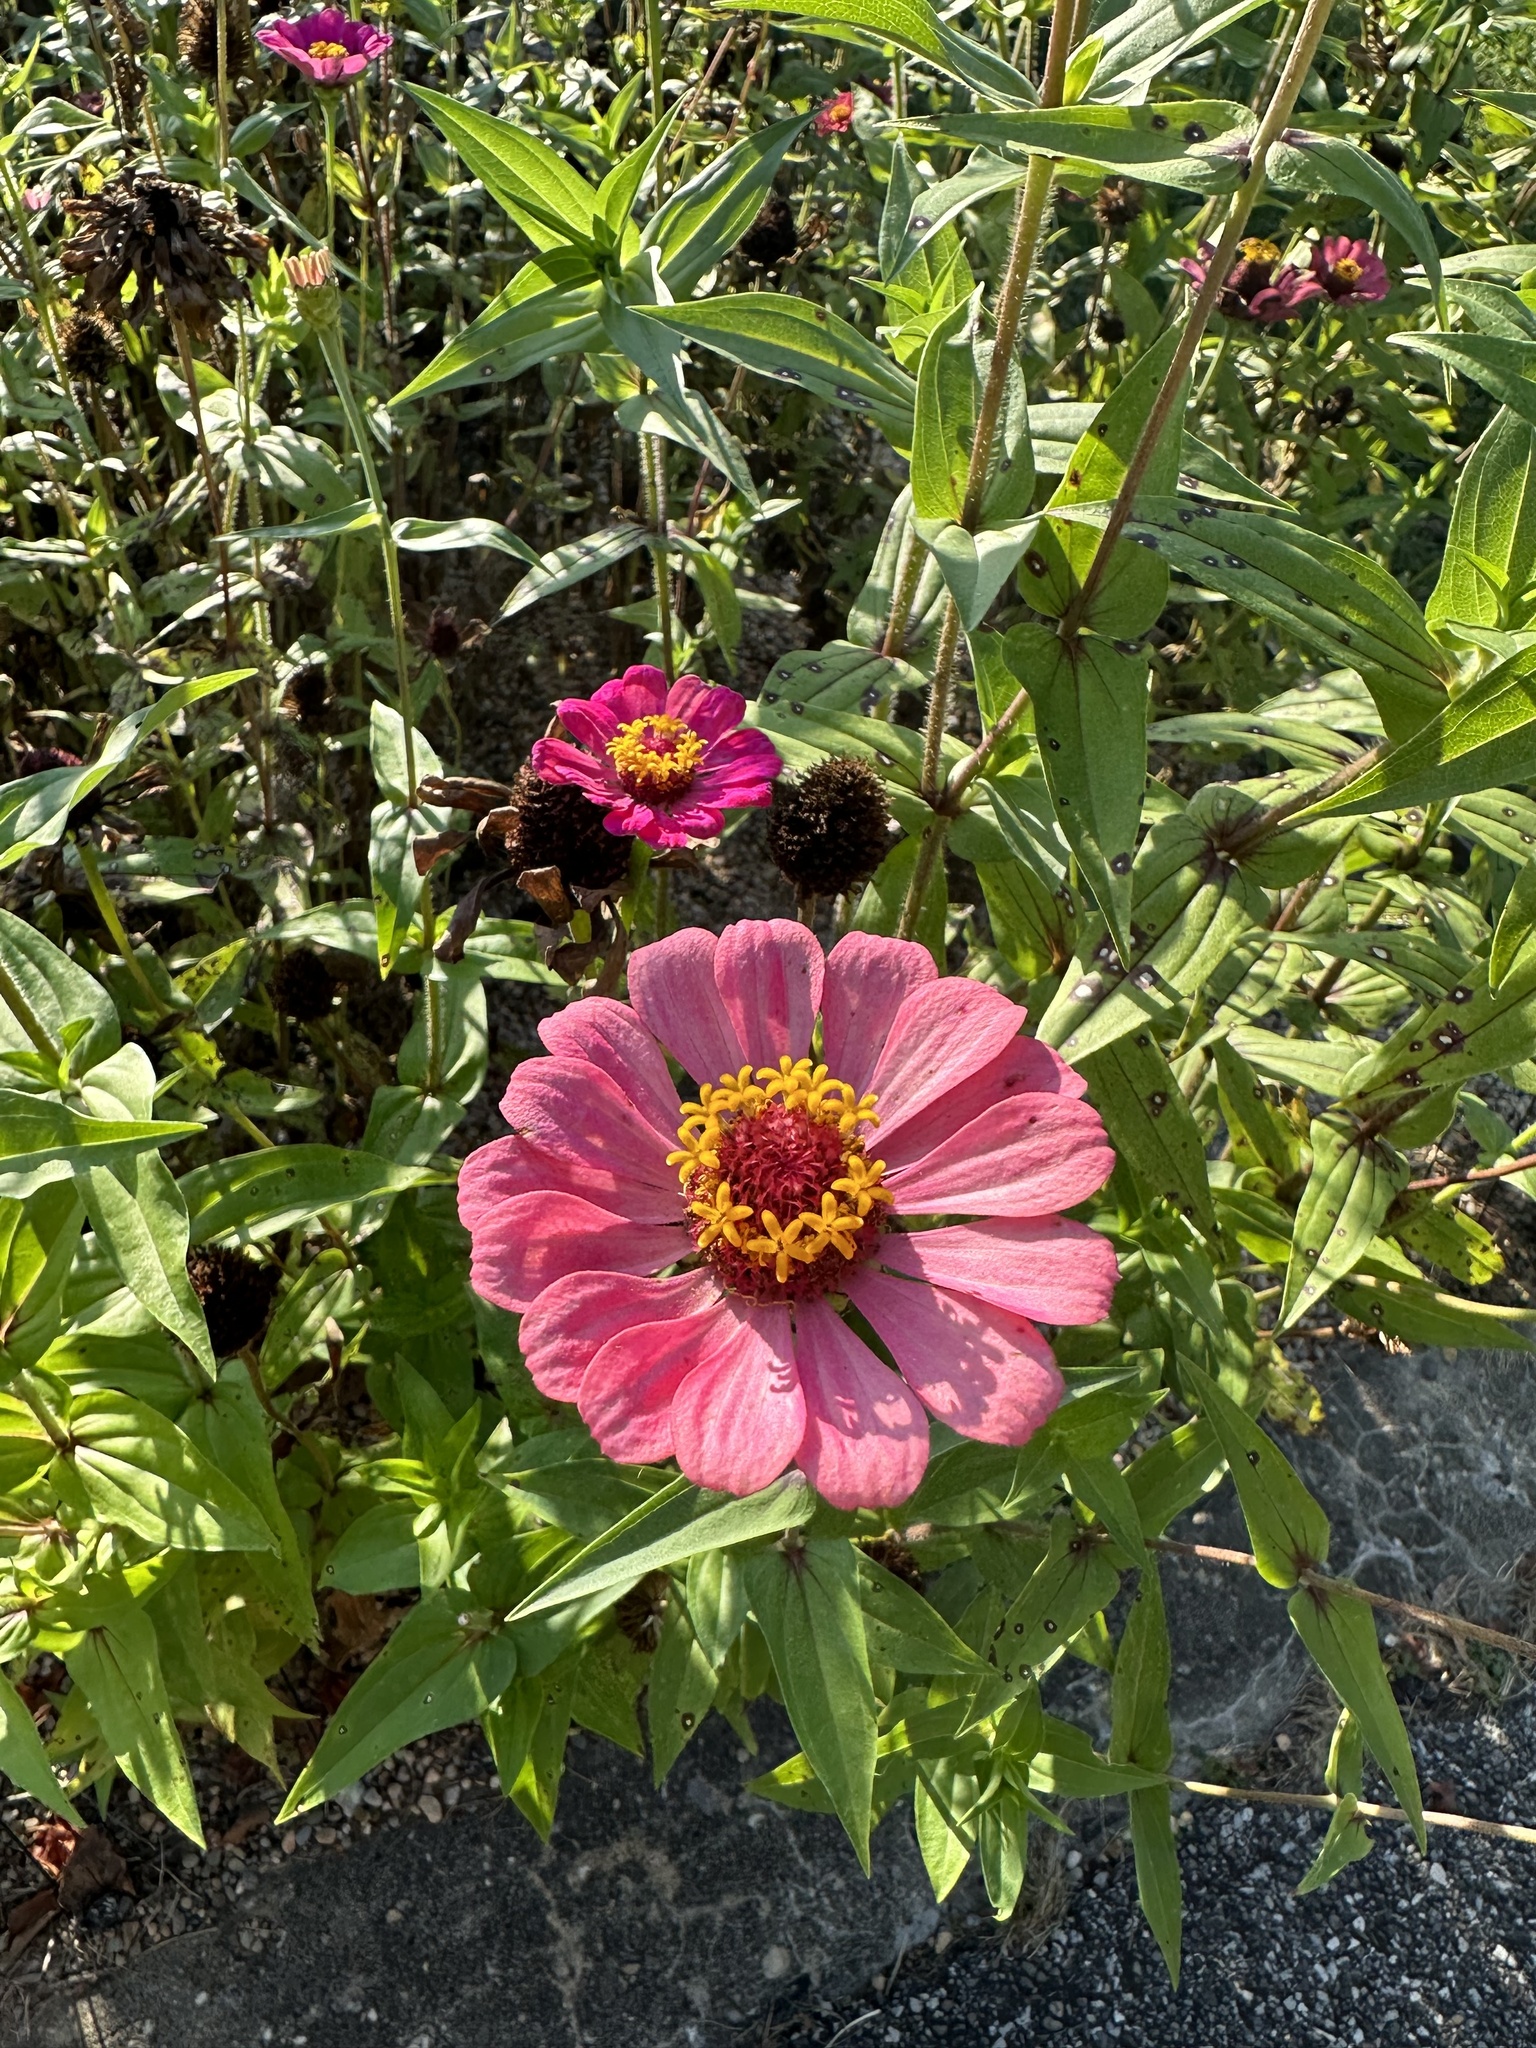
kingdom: Plantae
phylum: Tracheophyta
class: Magnoliopsida
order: Asterales
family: Asteraceae
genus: Zinnia
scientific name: Zinnia elegans
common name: Youth-and-age
